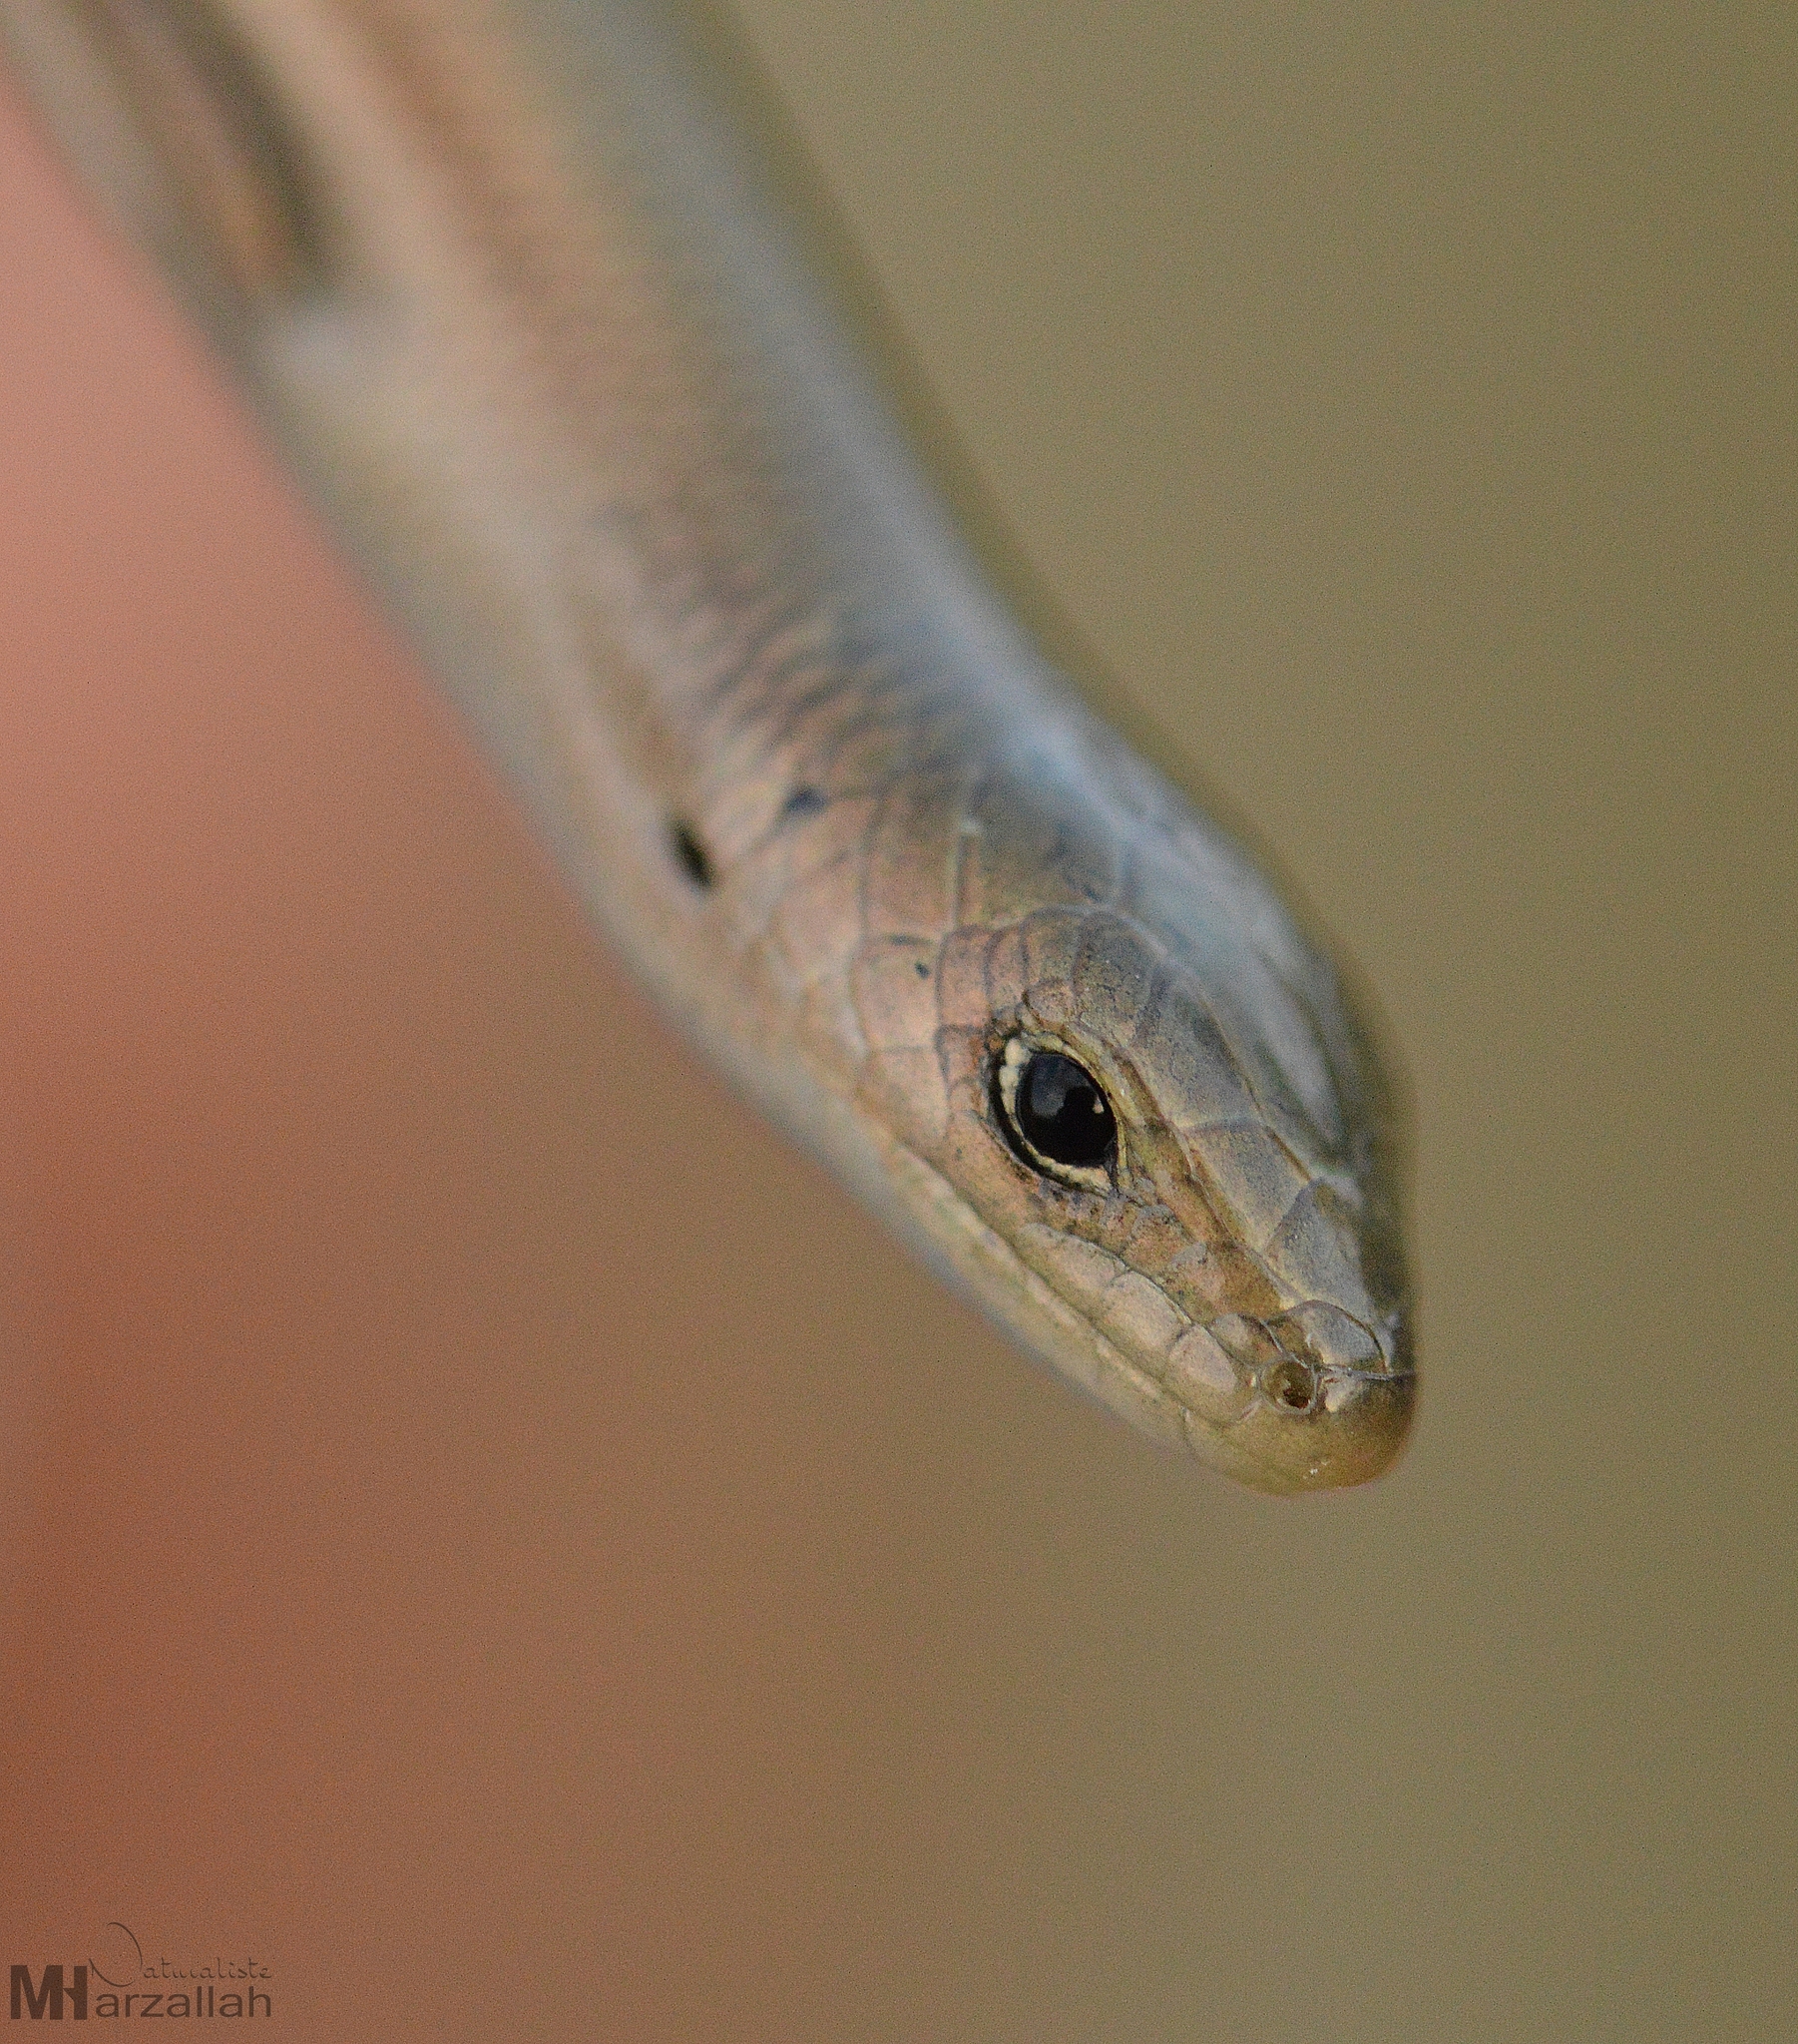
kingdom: Animalia
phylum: Chordata
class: Squamata
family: Scincidae
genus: Chalcides
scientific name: Chalcides mertensi
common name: Algerian three-toed skink
